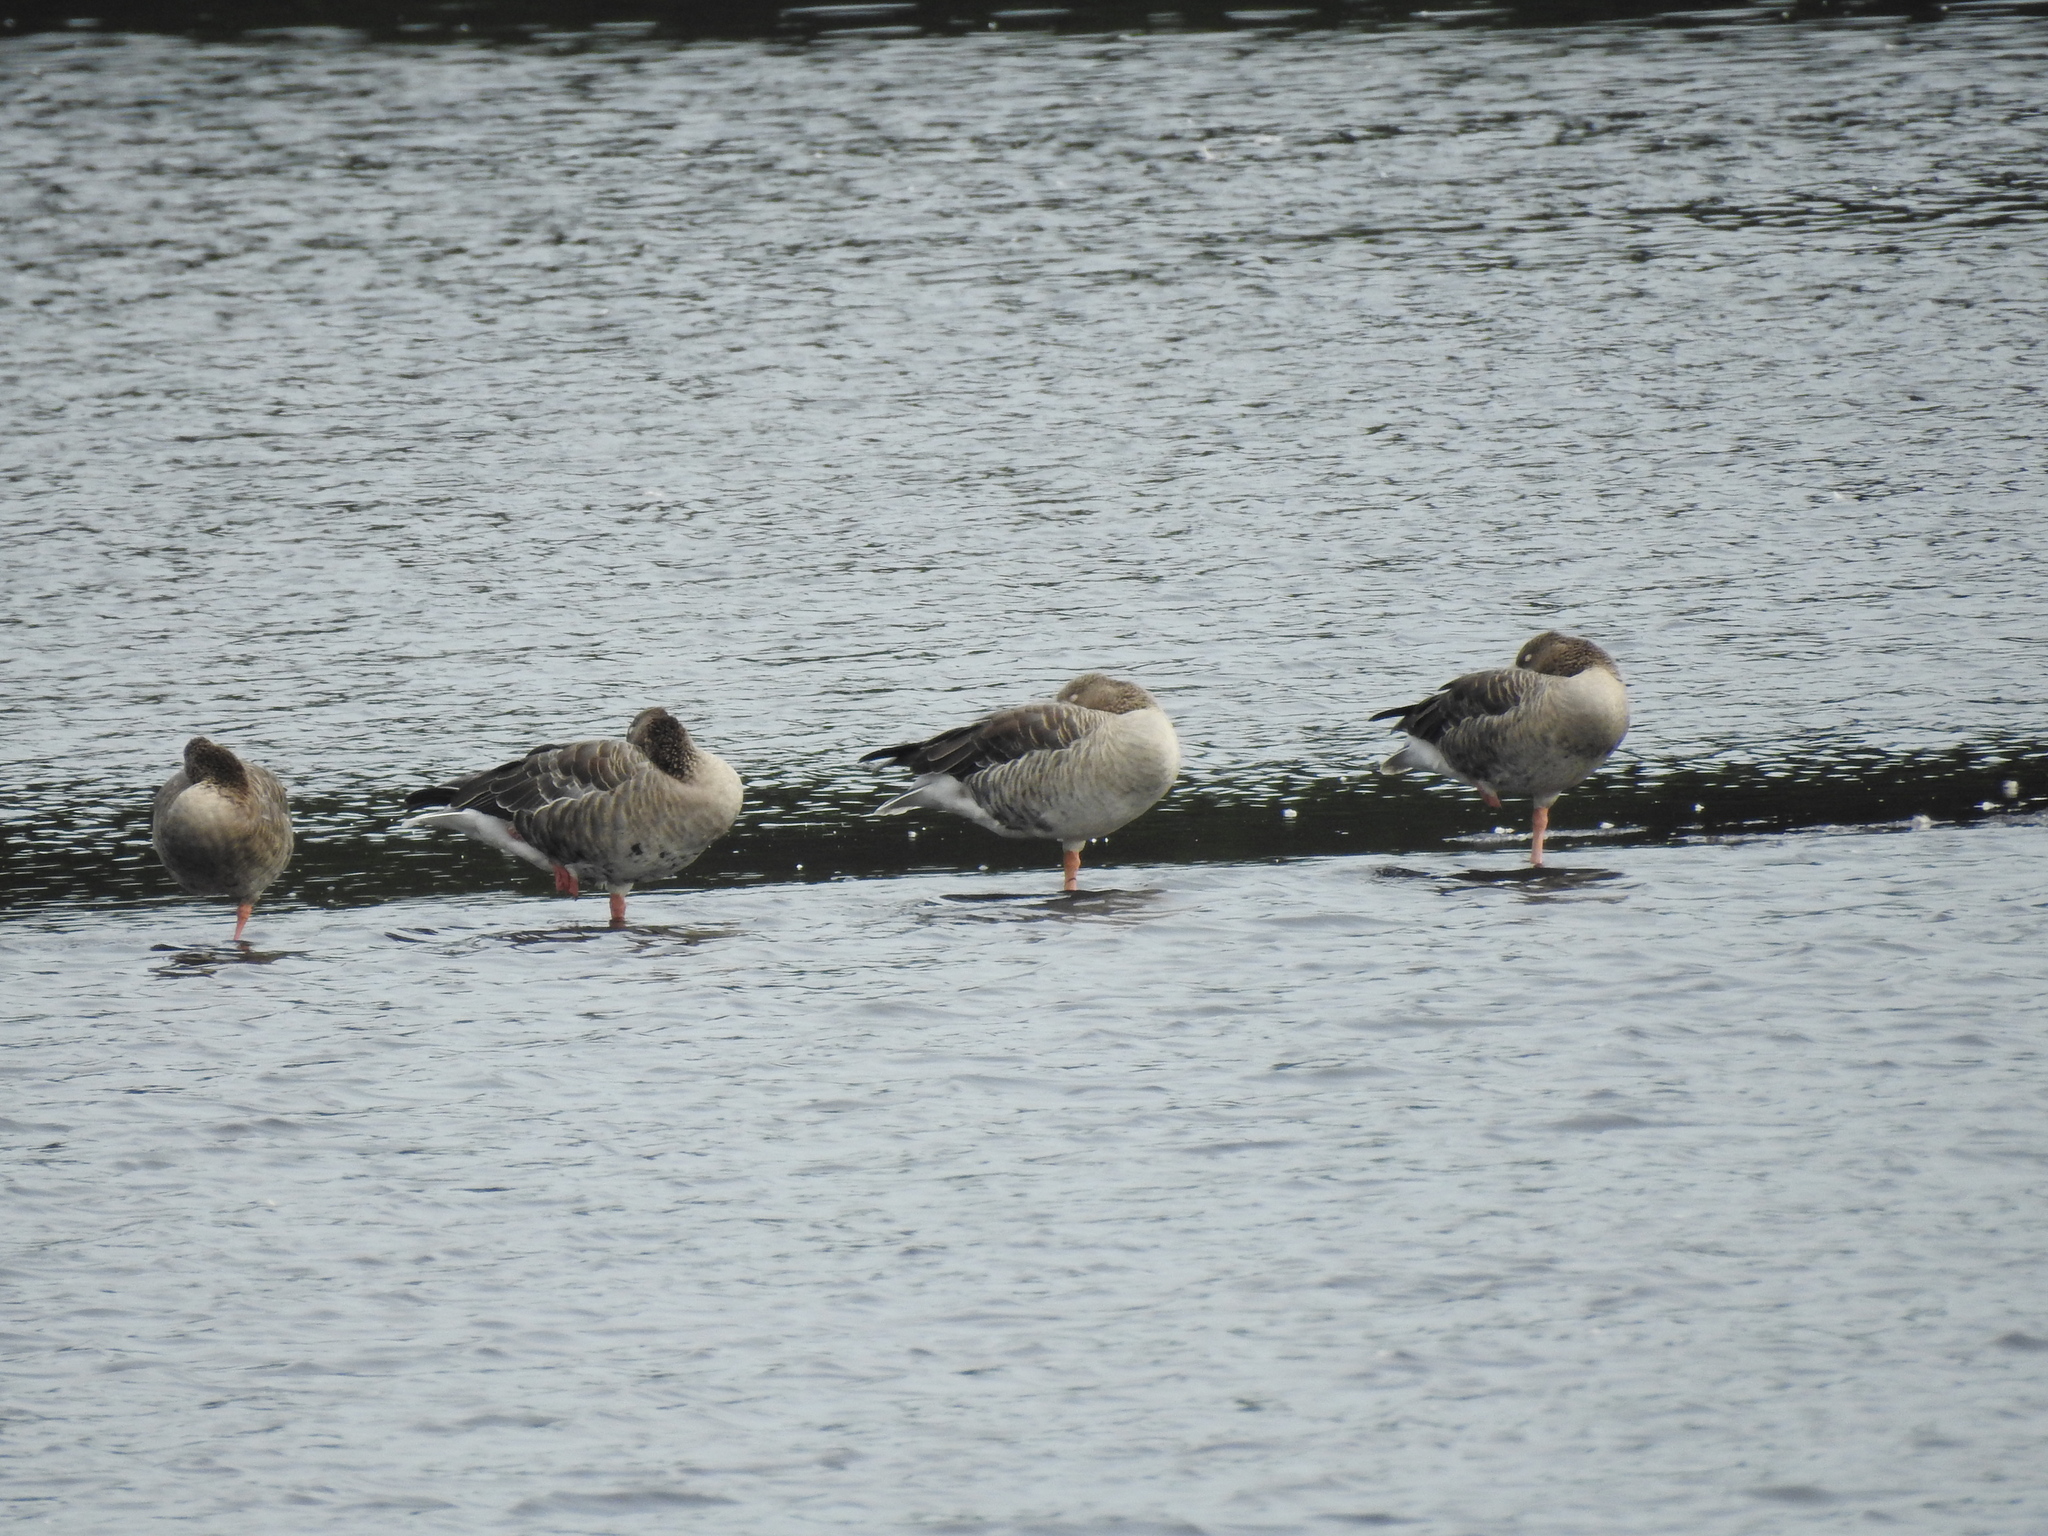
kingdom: Animalia
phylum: Chordata
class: Aves
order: Anseriformes
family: Anatidae
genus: Anser
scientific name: Anser serrirostris
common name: Tundra bean goose
